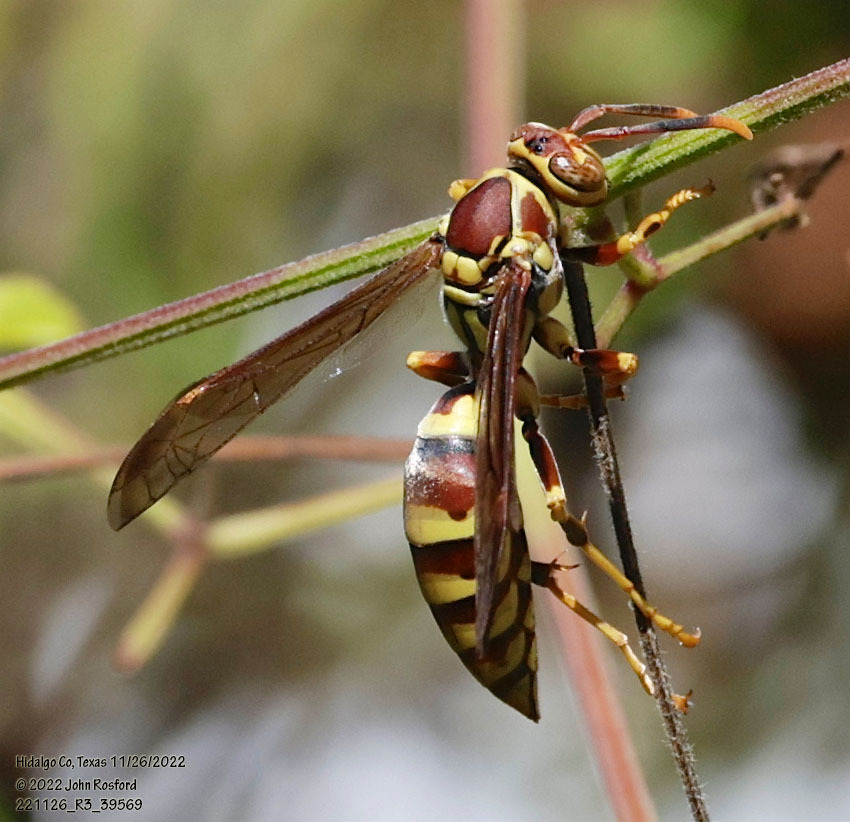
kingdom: Animalia
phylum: Arthropoda
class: Insecta
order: Hymenoptera
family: Eumenidae
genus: Polistes
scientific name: Polistes exclamans
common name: Paper wasp
